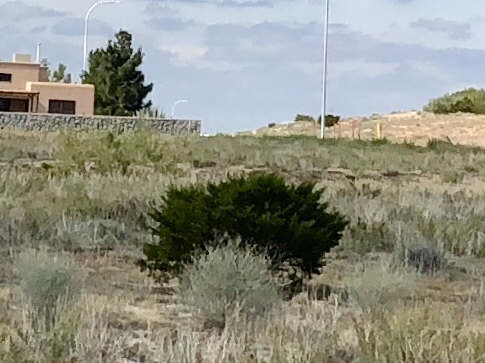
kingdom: Plantae
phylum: Tracheophyta
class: Magnoliopsida
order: Zygophyllales
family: Zygophyllaceae
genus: Larrea
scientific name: Larrea tridentata
